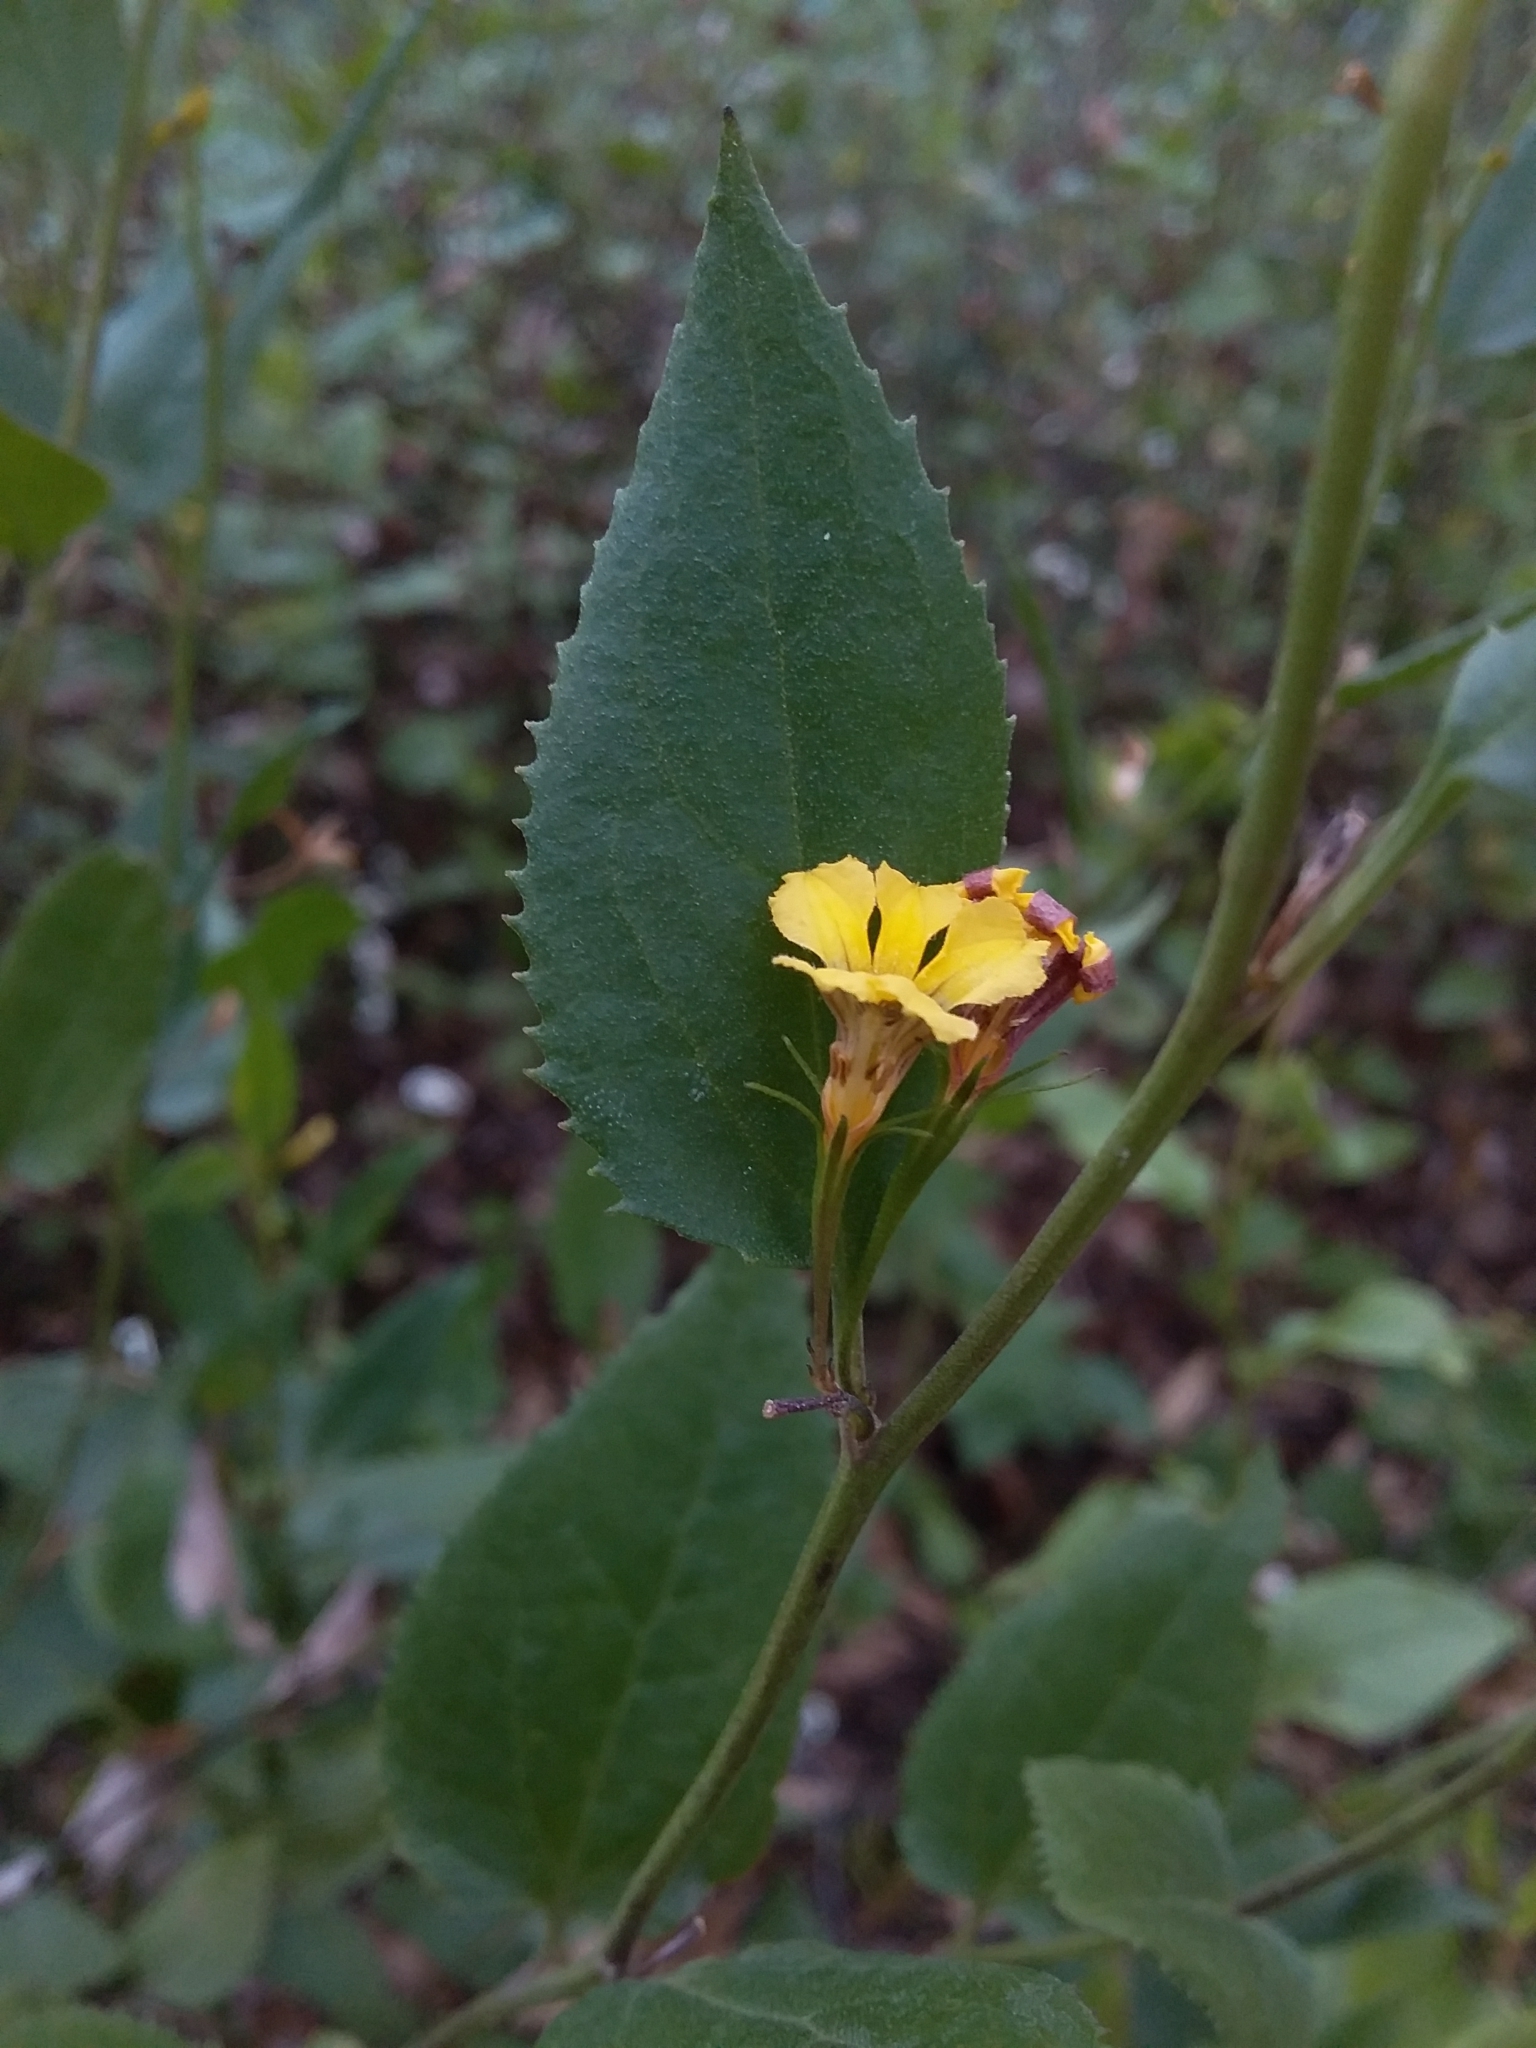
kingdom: Plantae
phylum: Tracheophyta
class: Magnoliopsida
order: Asterales
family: Goodeniaceae
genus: Goodenia
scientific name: Goodenia ovata
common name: Hop goodenia
